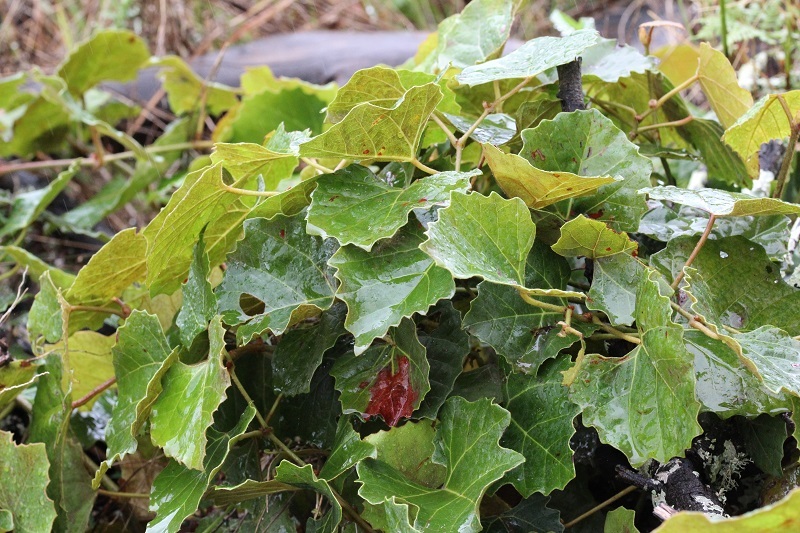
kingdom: Plantae
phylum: Tracheophyta
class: Magnoliopsida
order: Vitales
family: Vitaceae
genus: Rhoicissus
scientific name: Rhoicissus tomentosa
